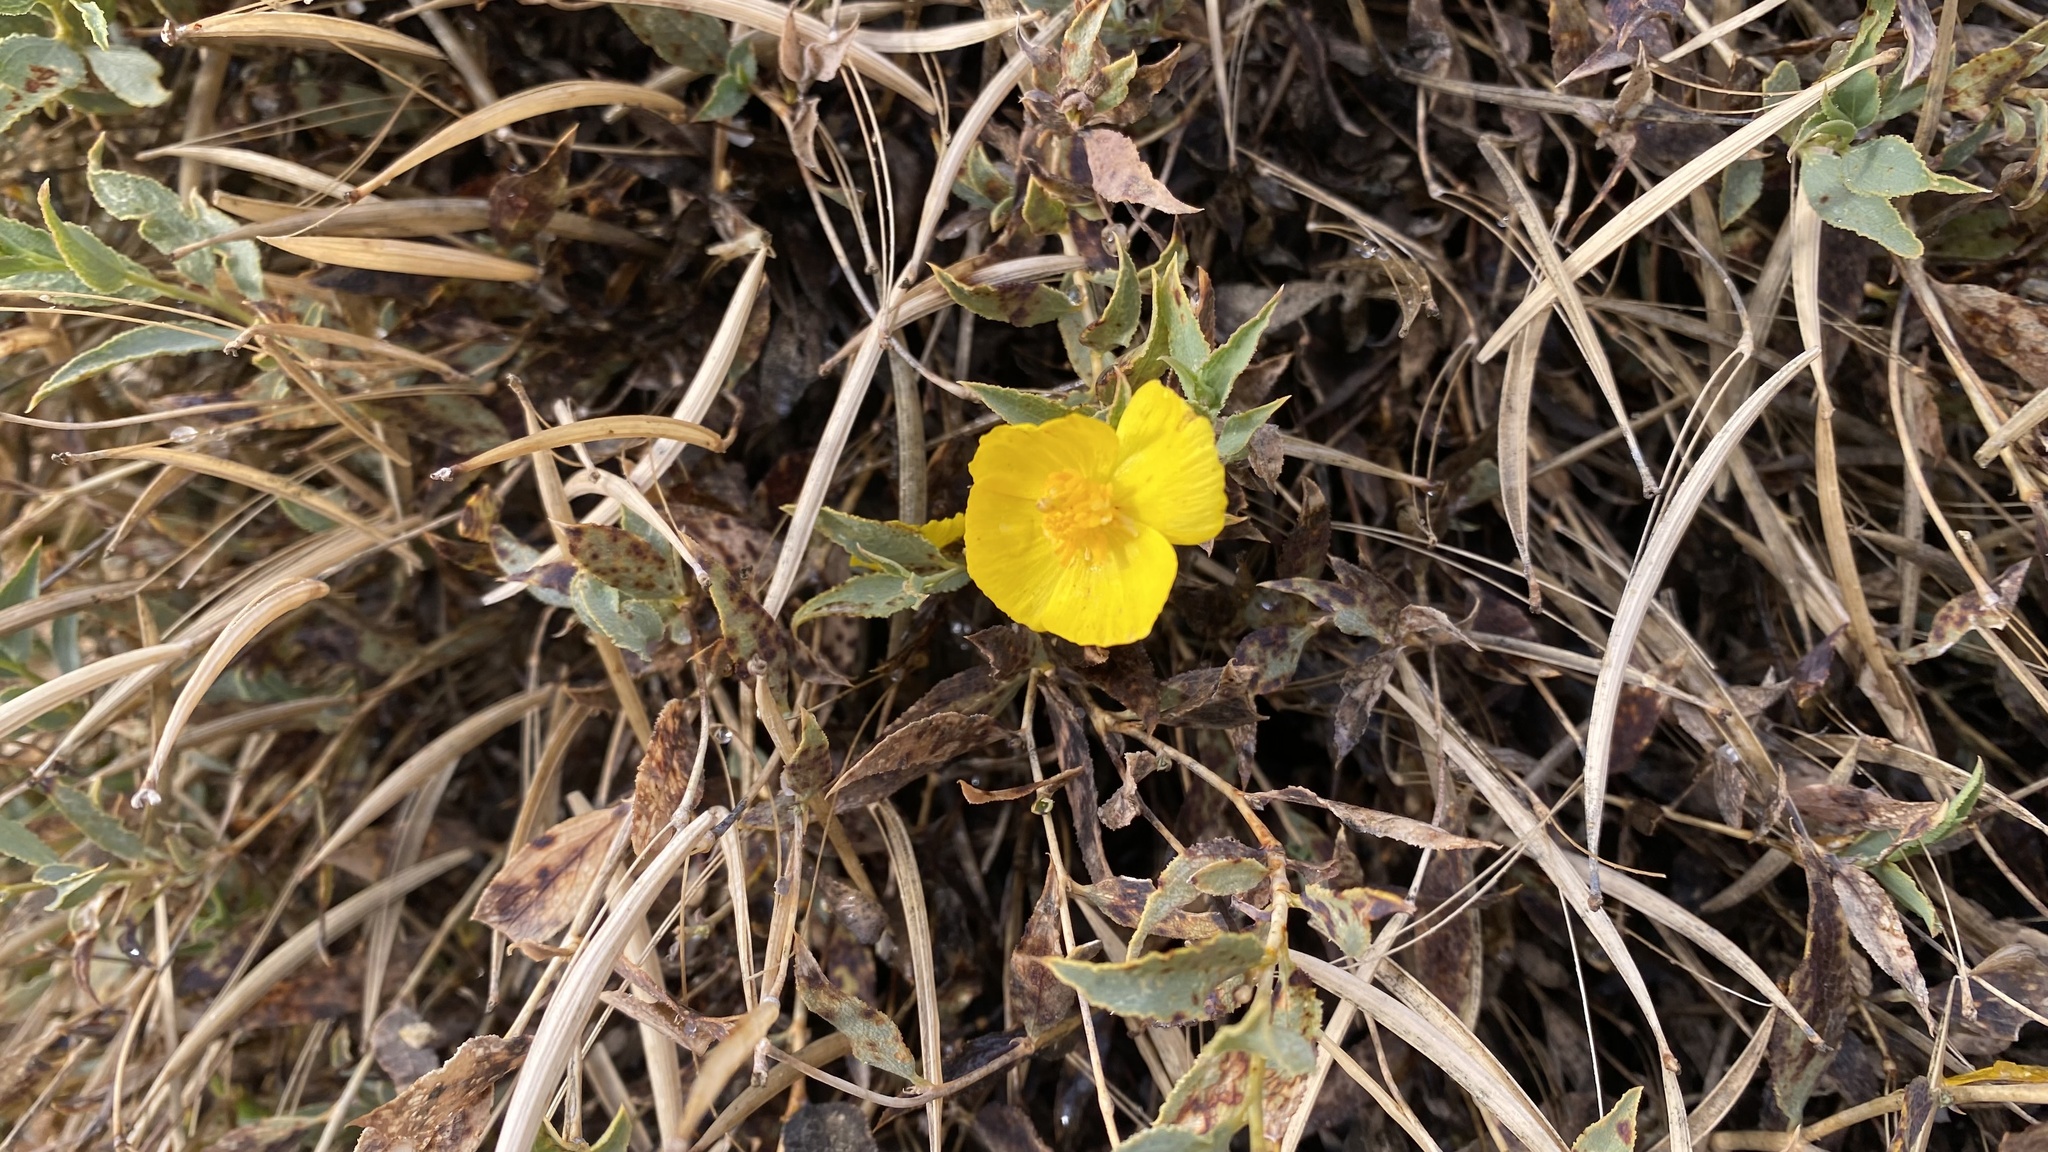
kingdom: Plantae
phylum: Tracheophyta
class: Magnoliopsida
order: Ranunculales
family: Papaveraceae
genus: Dendromecon
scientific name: Dendromecon rigida
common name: Tree poppy
